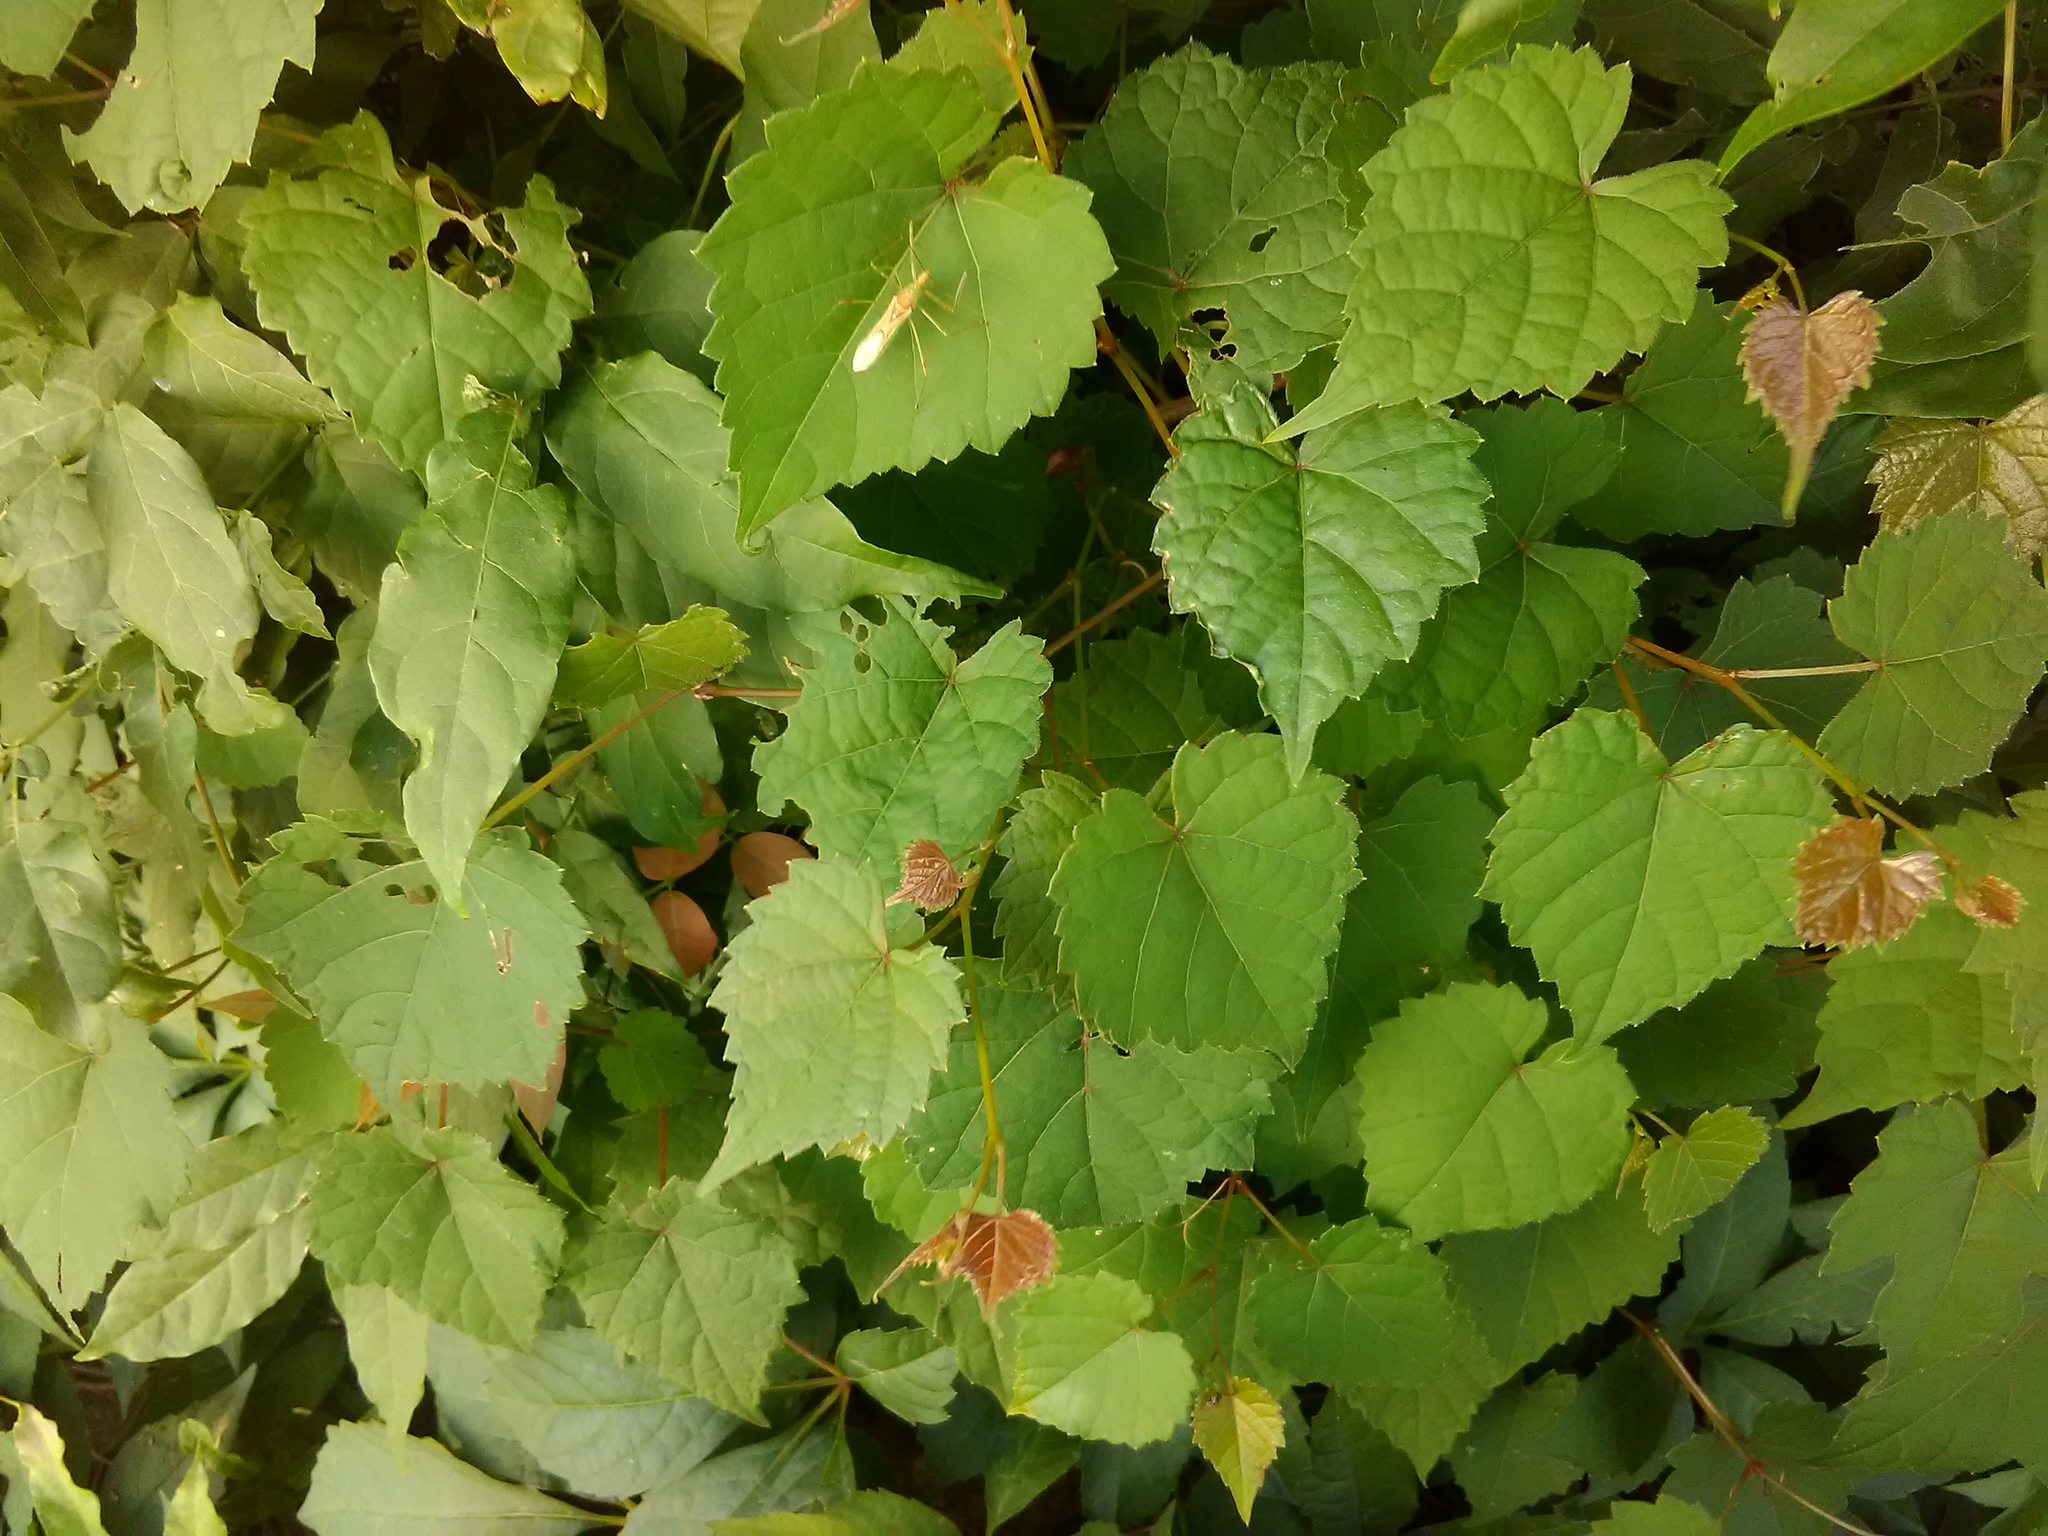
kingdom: Plantae
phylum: Tracheophyta
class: Magnoliopsida
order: Vitales
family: Vitaceae
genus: Vitis
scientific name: Vitis rotundifolia
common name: Muscadine grape
